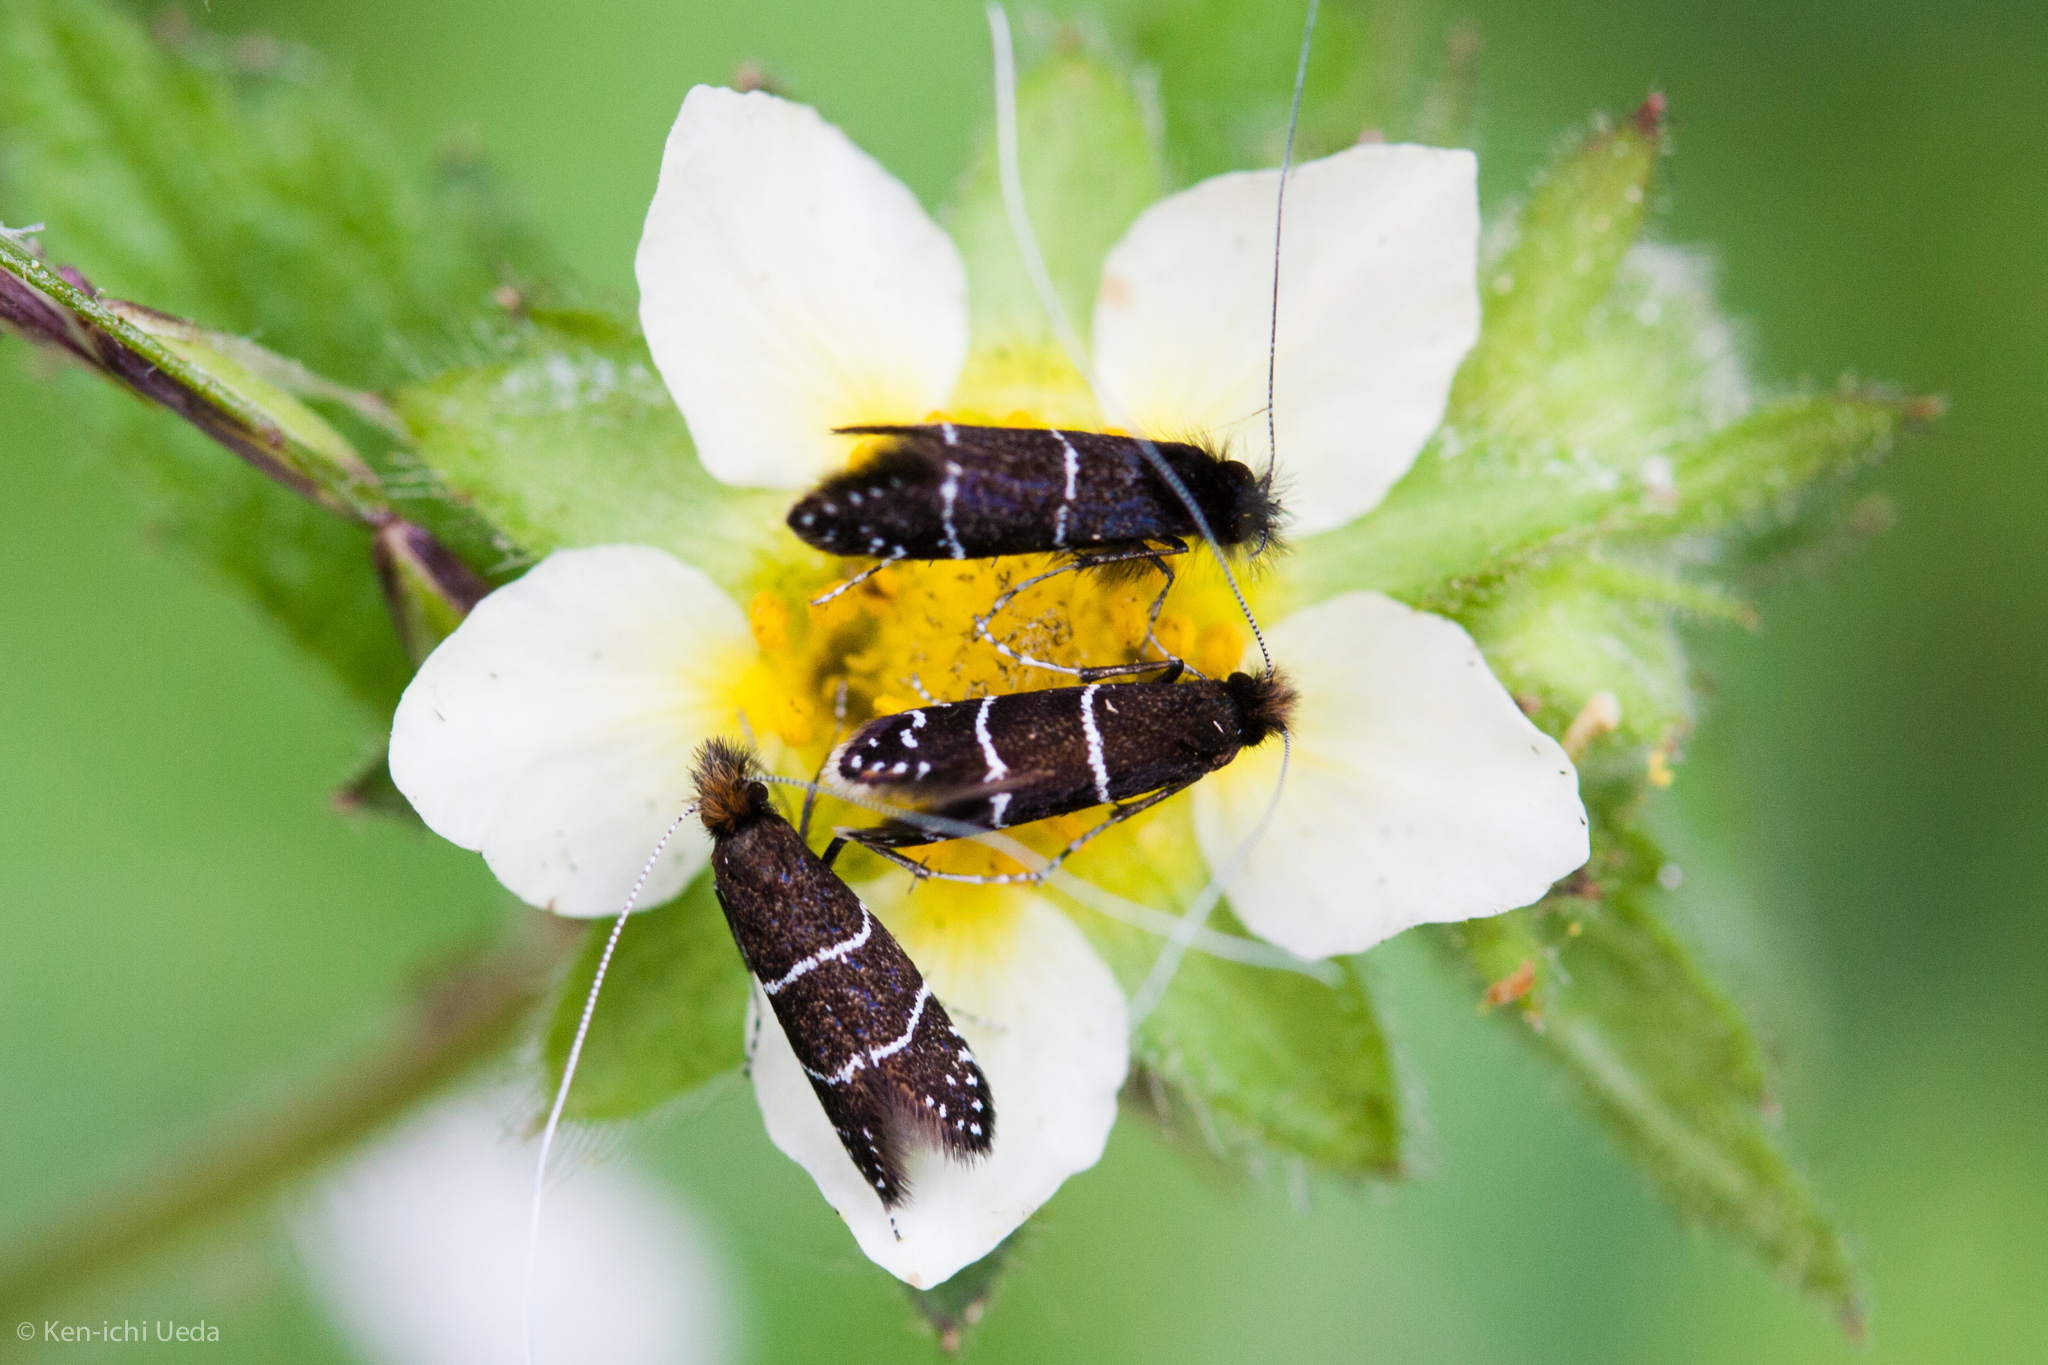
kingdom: Plantae
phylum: Tracheophyta
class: Magnoliopsida
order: Rosales
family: Rosaceae
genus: Drymocallis
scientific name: Drymocallis glandulosa
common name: Sticky cinquefoil
